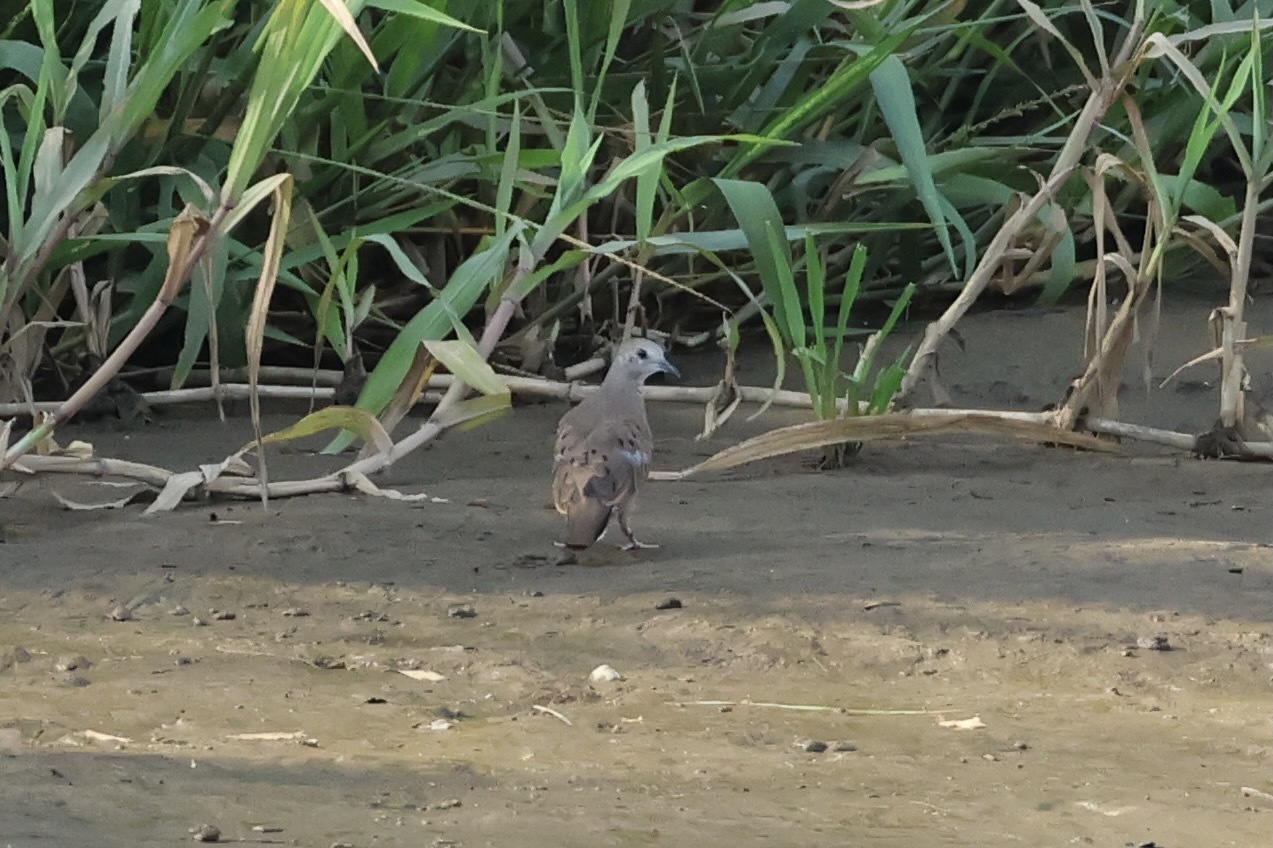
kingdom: Animalia
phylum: Chordata
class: Aves
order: Columbiformes
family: Columbidae
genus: Columbina
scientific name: Columbina minuta
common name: Plain-breasted ground dove
